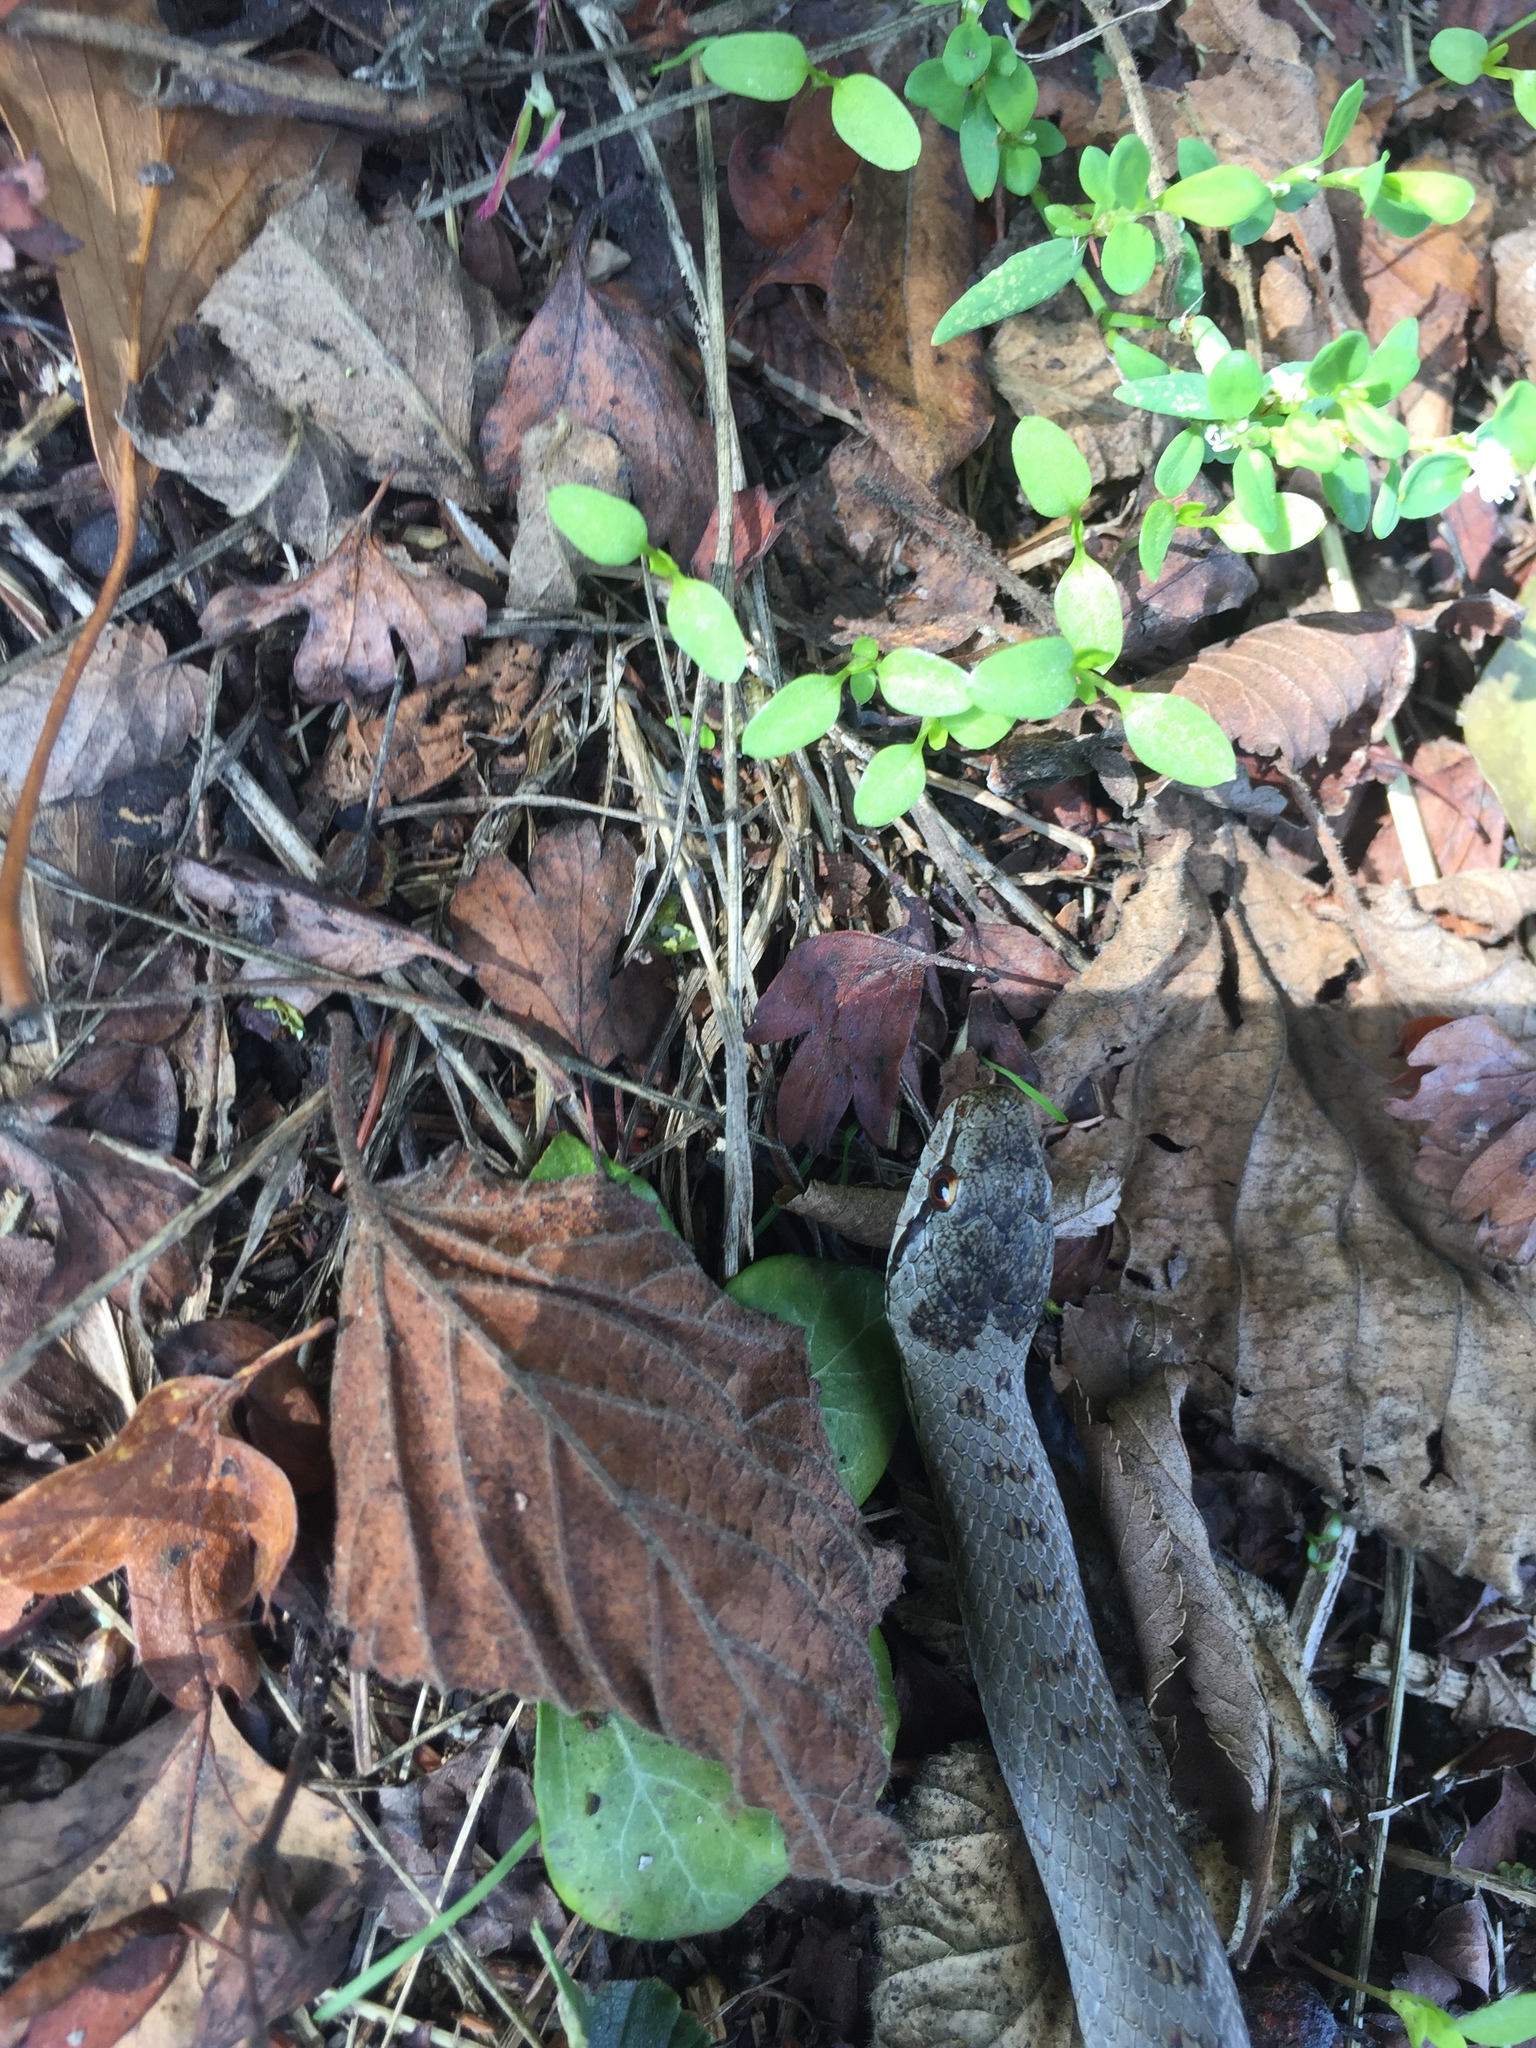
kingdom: Animalia
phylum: Chordata
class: Squamata
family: Colubridae
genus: Coronella
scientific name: Coronella austriaca
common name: Smooth snake
